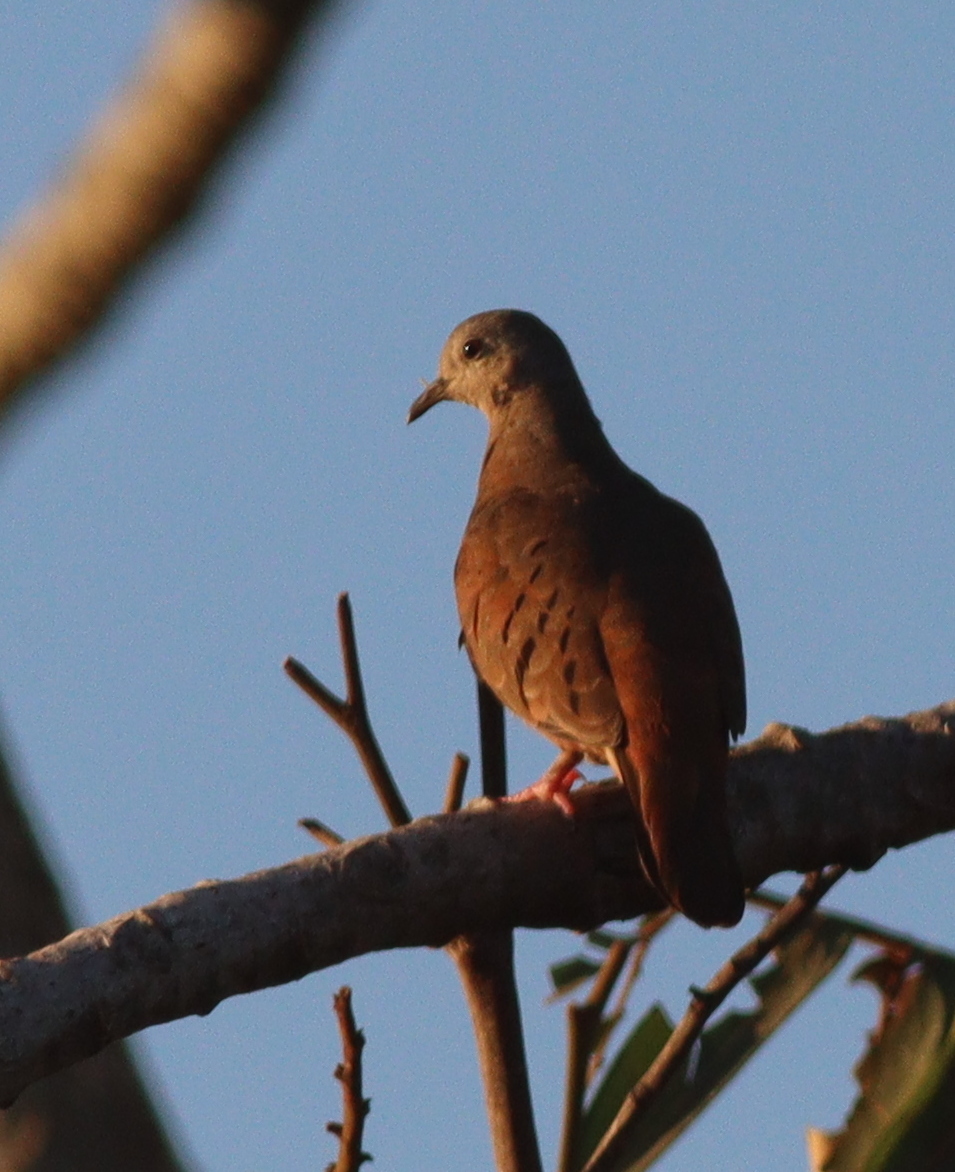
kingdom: Animalia
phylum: Chordata
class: Aves
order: Columbiformes
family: Columbidae
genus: Columbina
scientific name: Columbina talpacoti
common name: Ruddy ground dove
